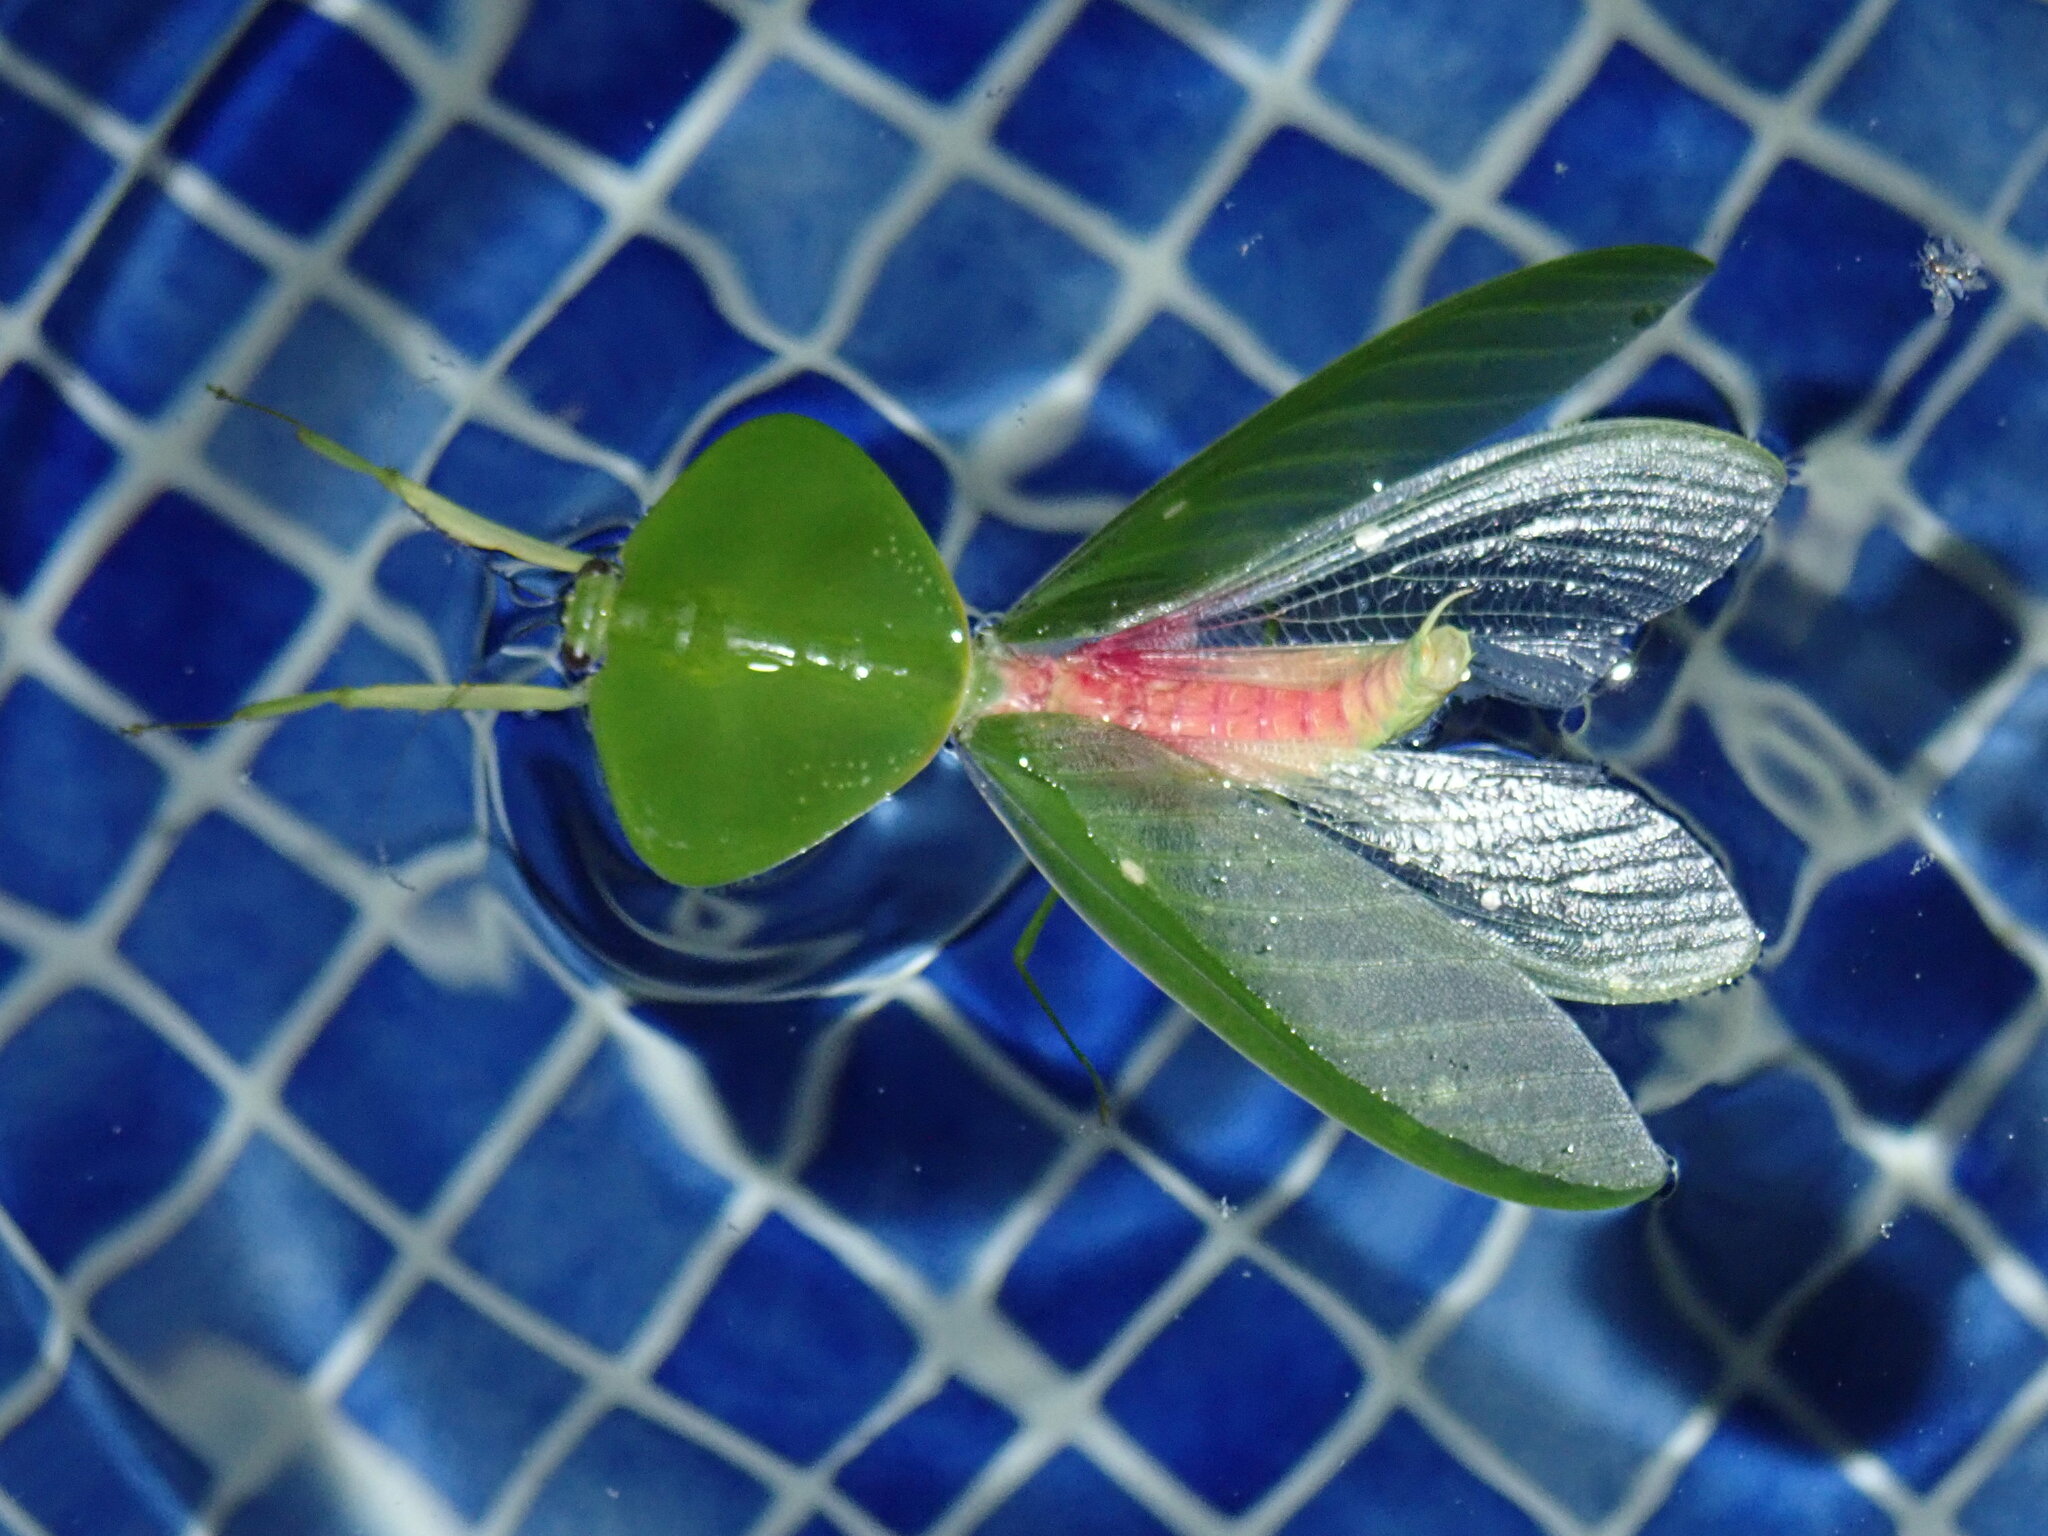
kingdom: Animalia
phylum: Arthropoda
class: Insecta
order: Mantodea
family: Mantidae
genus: Choeradodis
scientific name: Choeradodis rhombicollis
